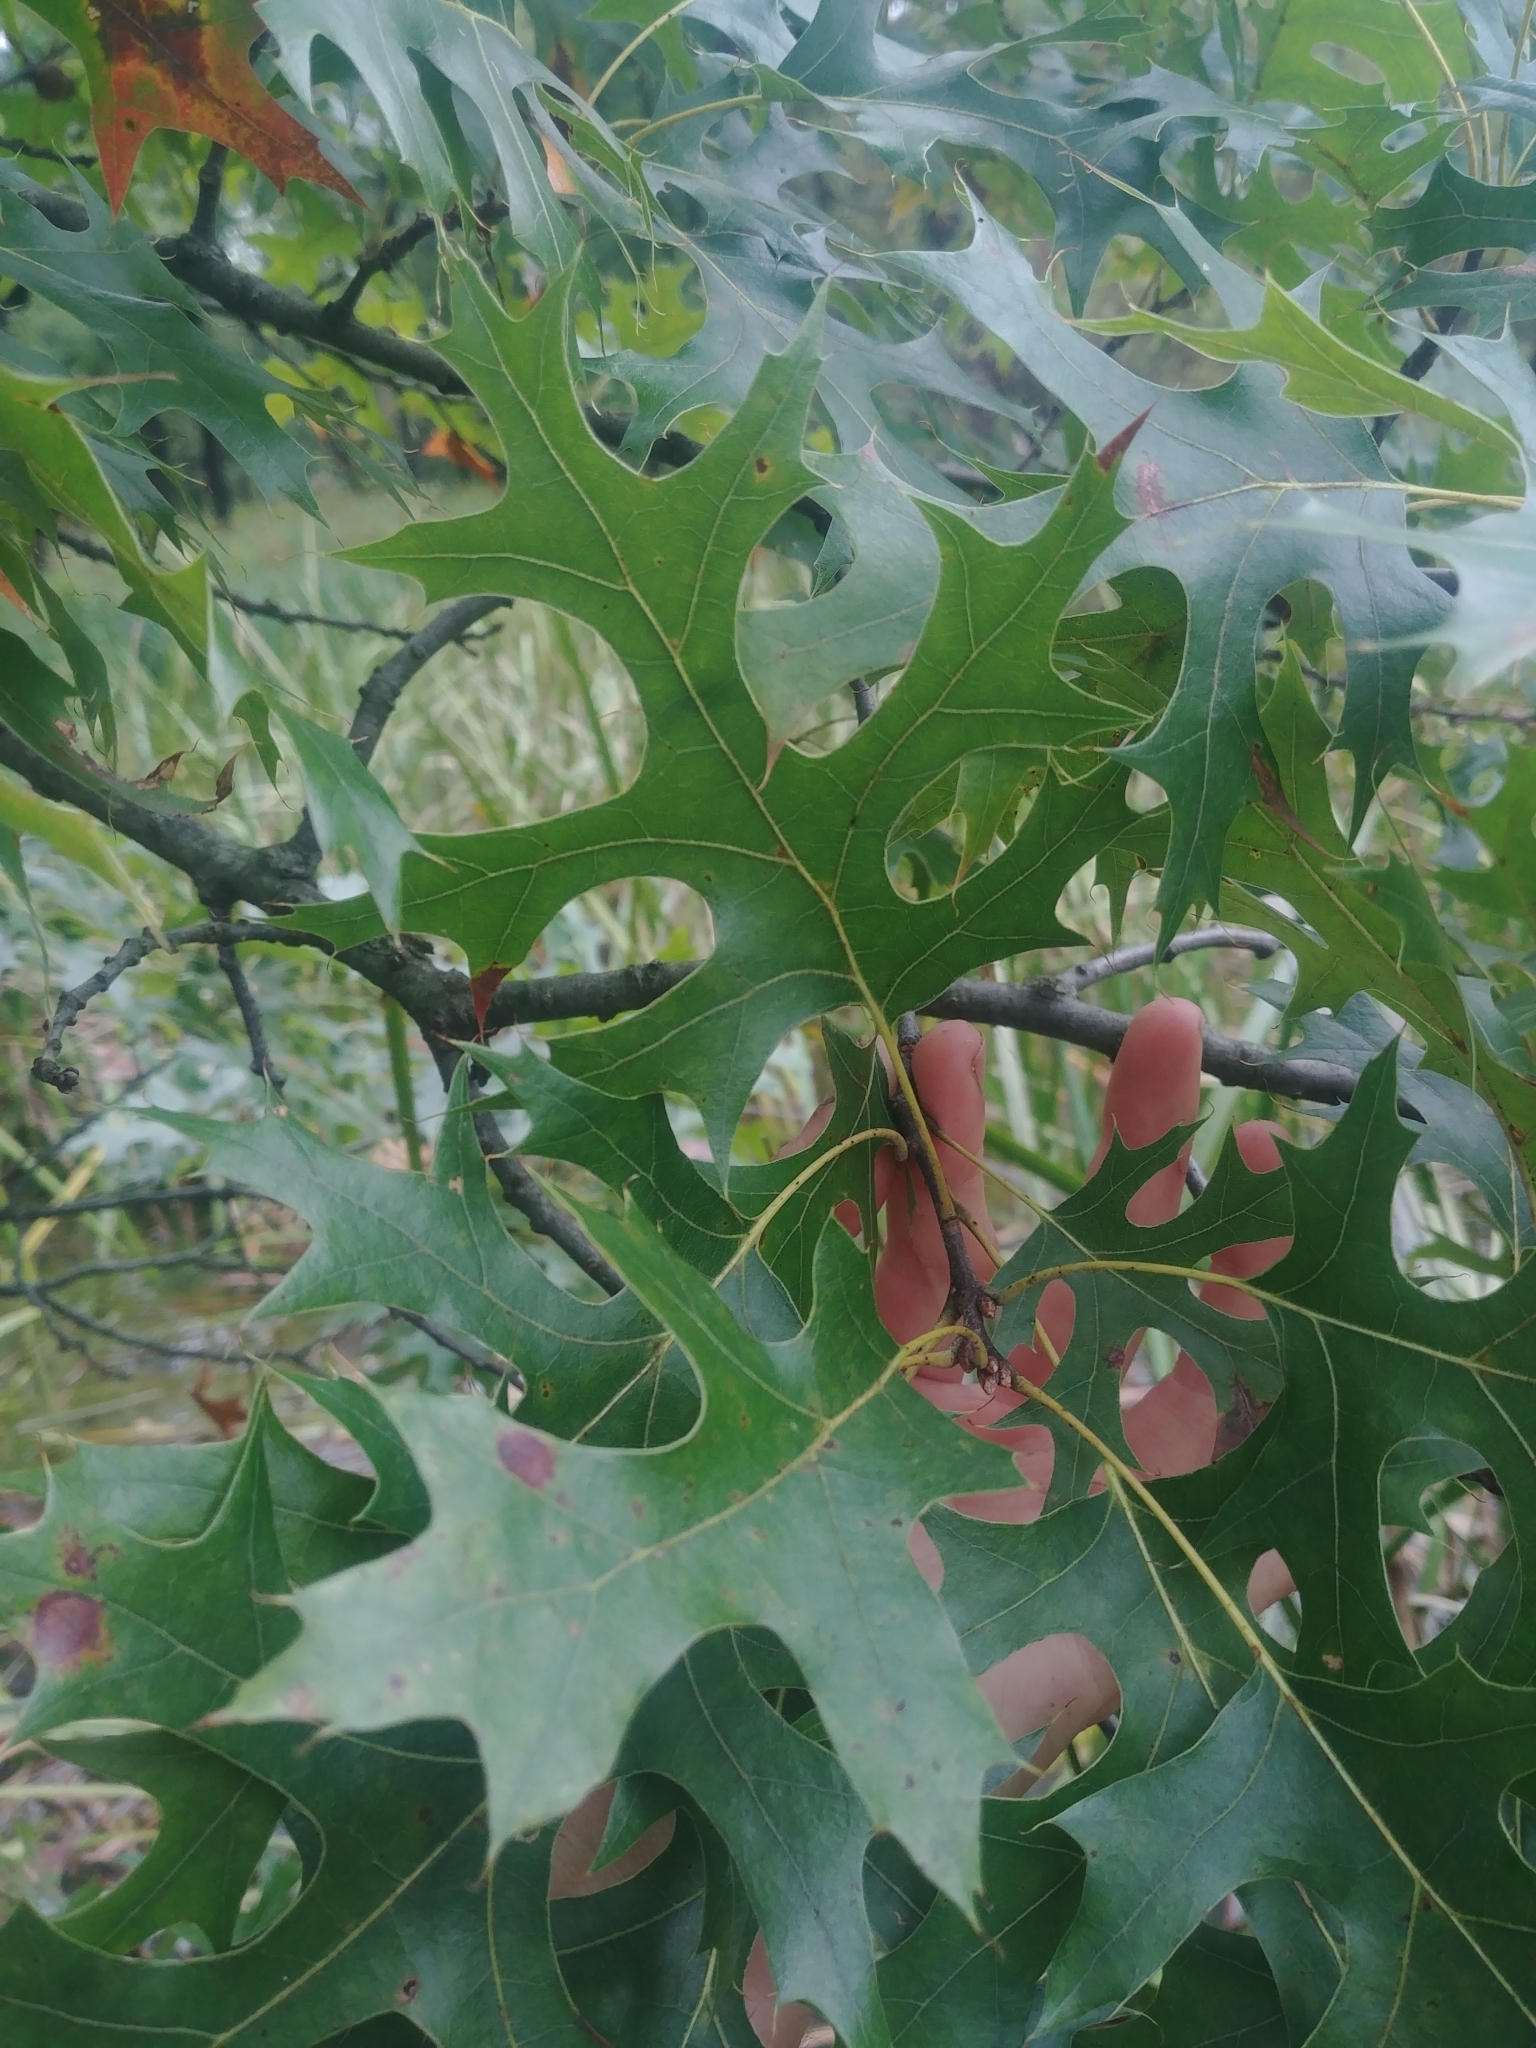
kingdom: Plantae
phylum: Tracheophyta
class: Magnoliopsida
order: Fagales
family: Fagaceae
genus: Quercus
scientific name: Quercus palustris
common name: Pin oak
